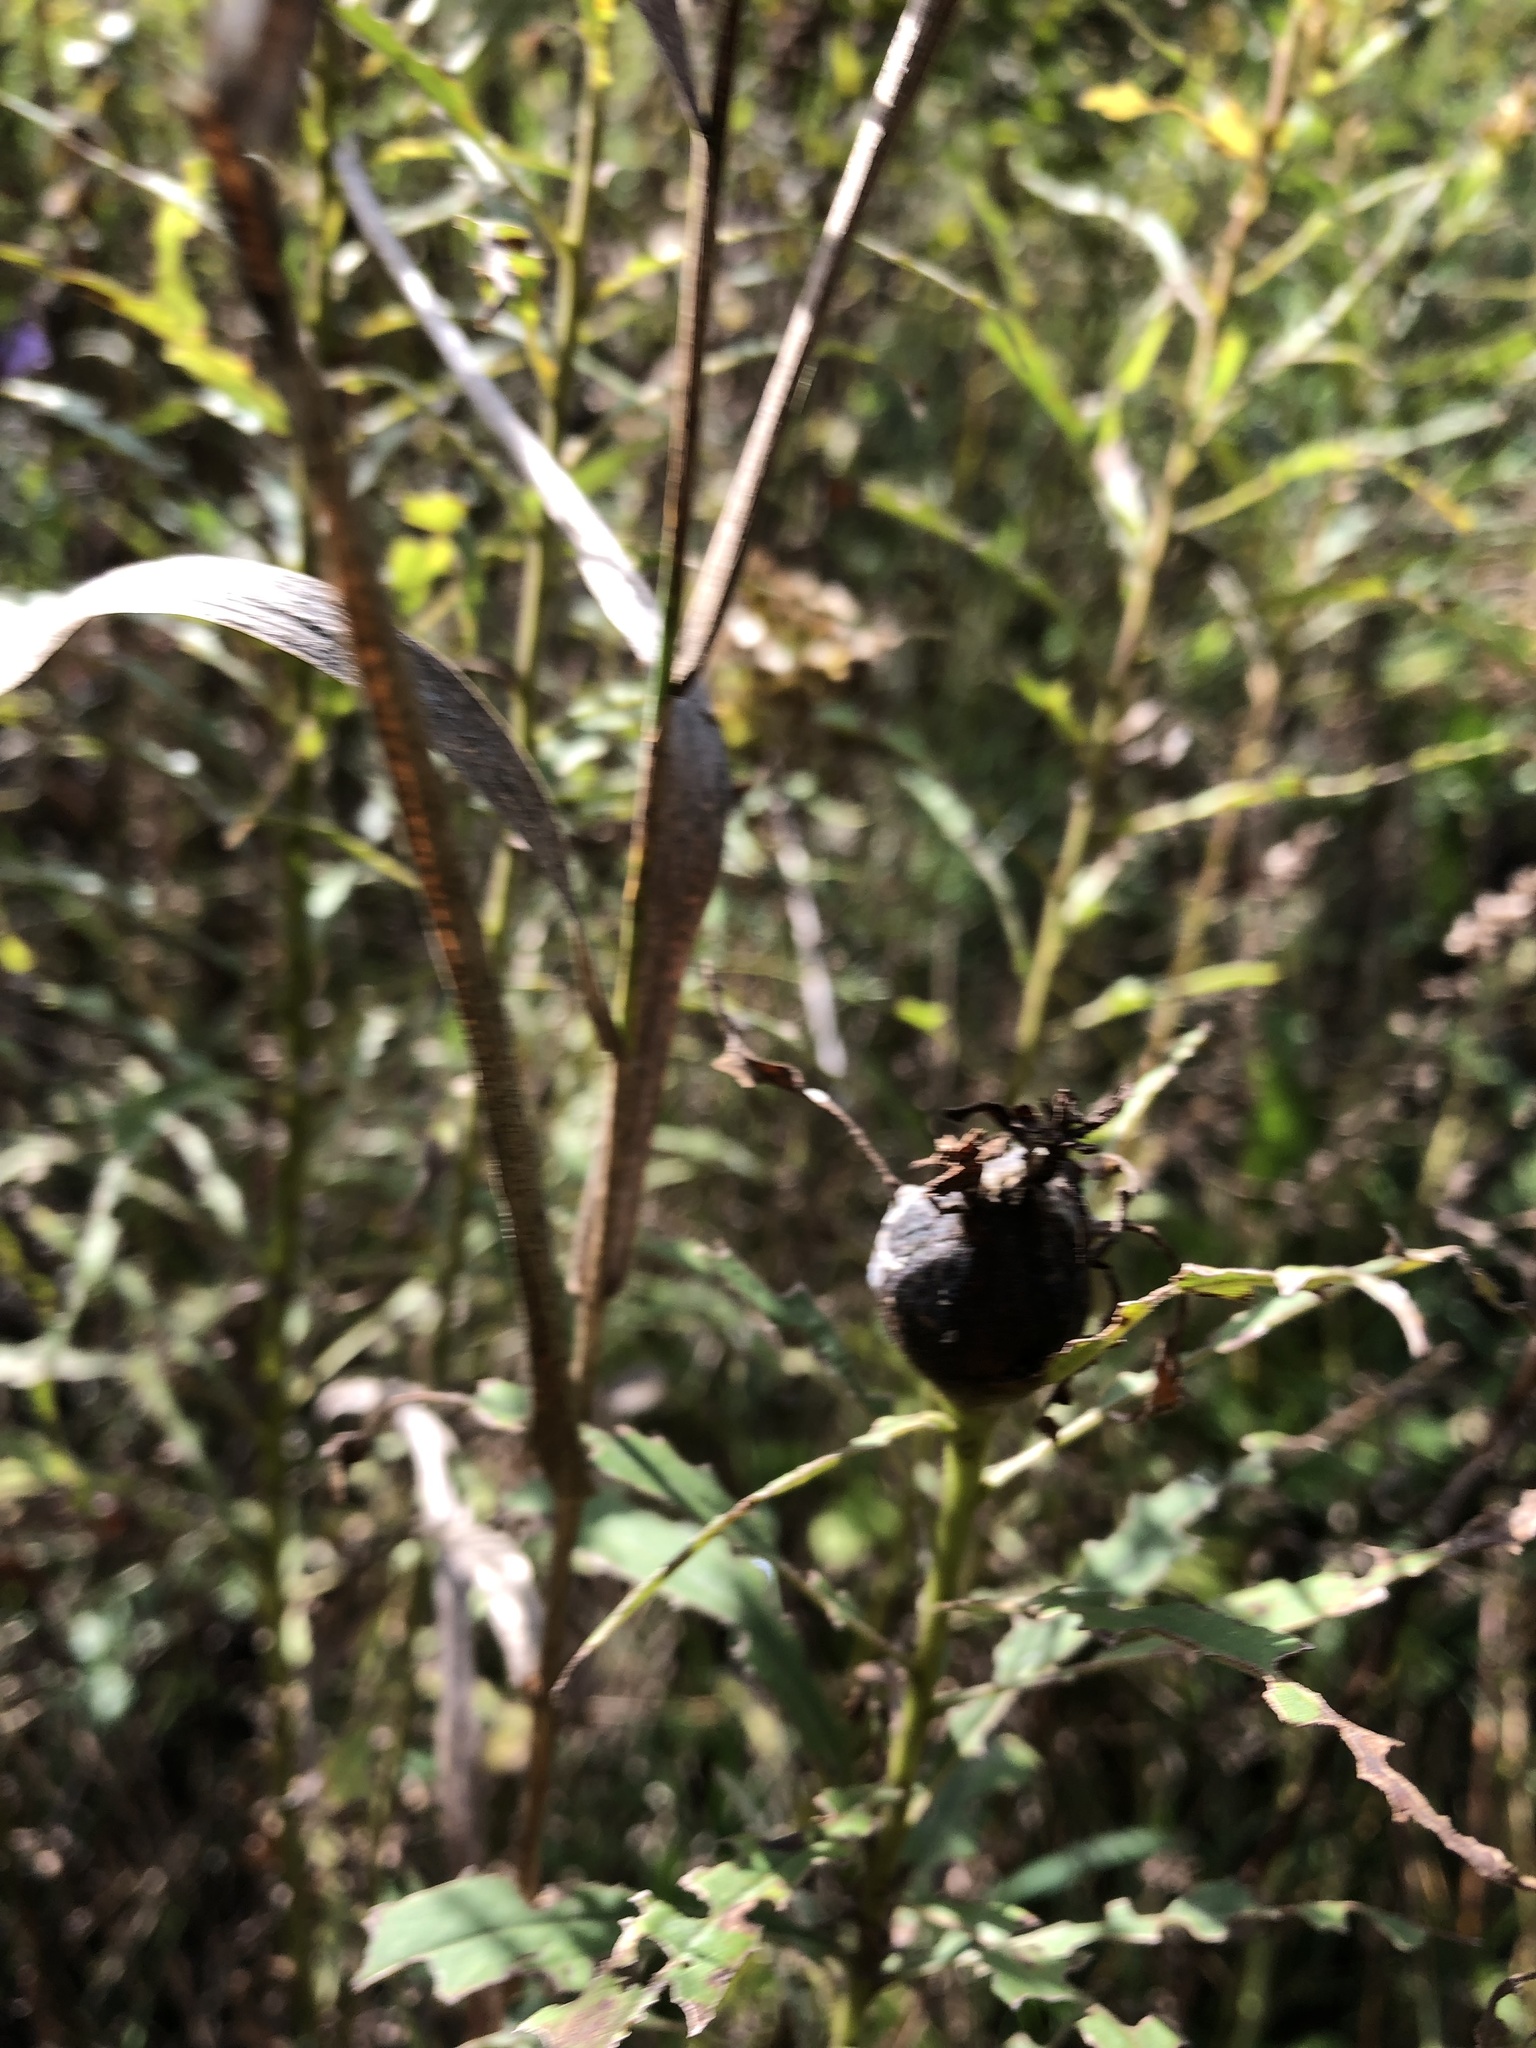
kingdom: Animalia
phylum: Arthropoda
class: Insecta
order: Diptera
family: Tephritidae
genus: Eurosta
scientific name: Eurosta solidaginis
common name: Goldenrod gall fly
